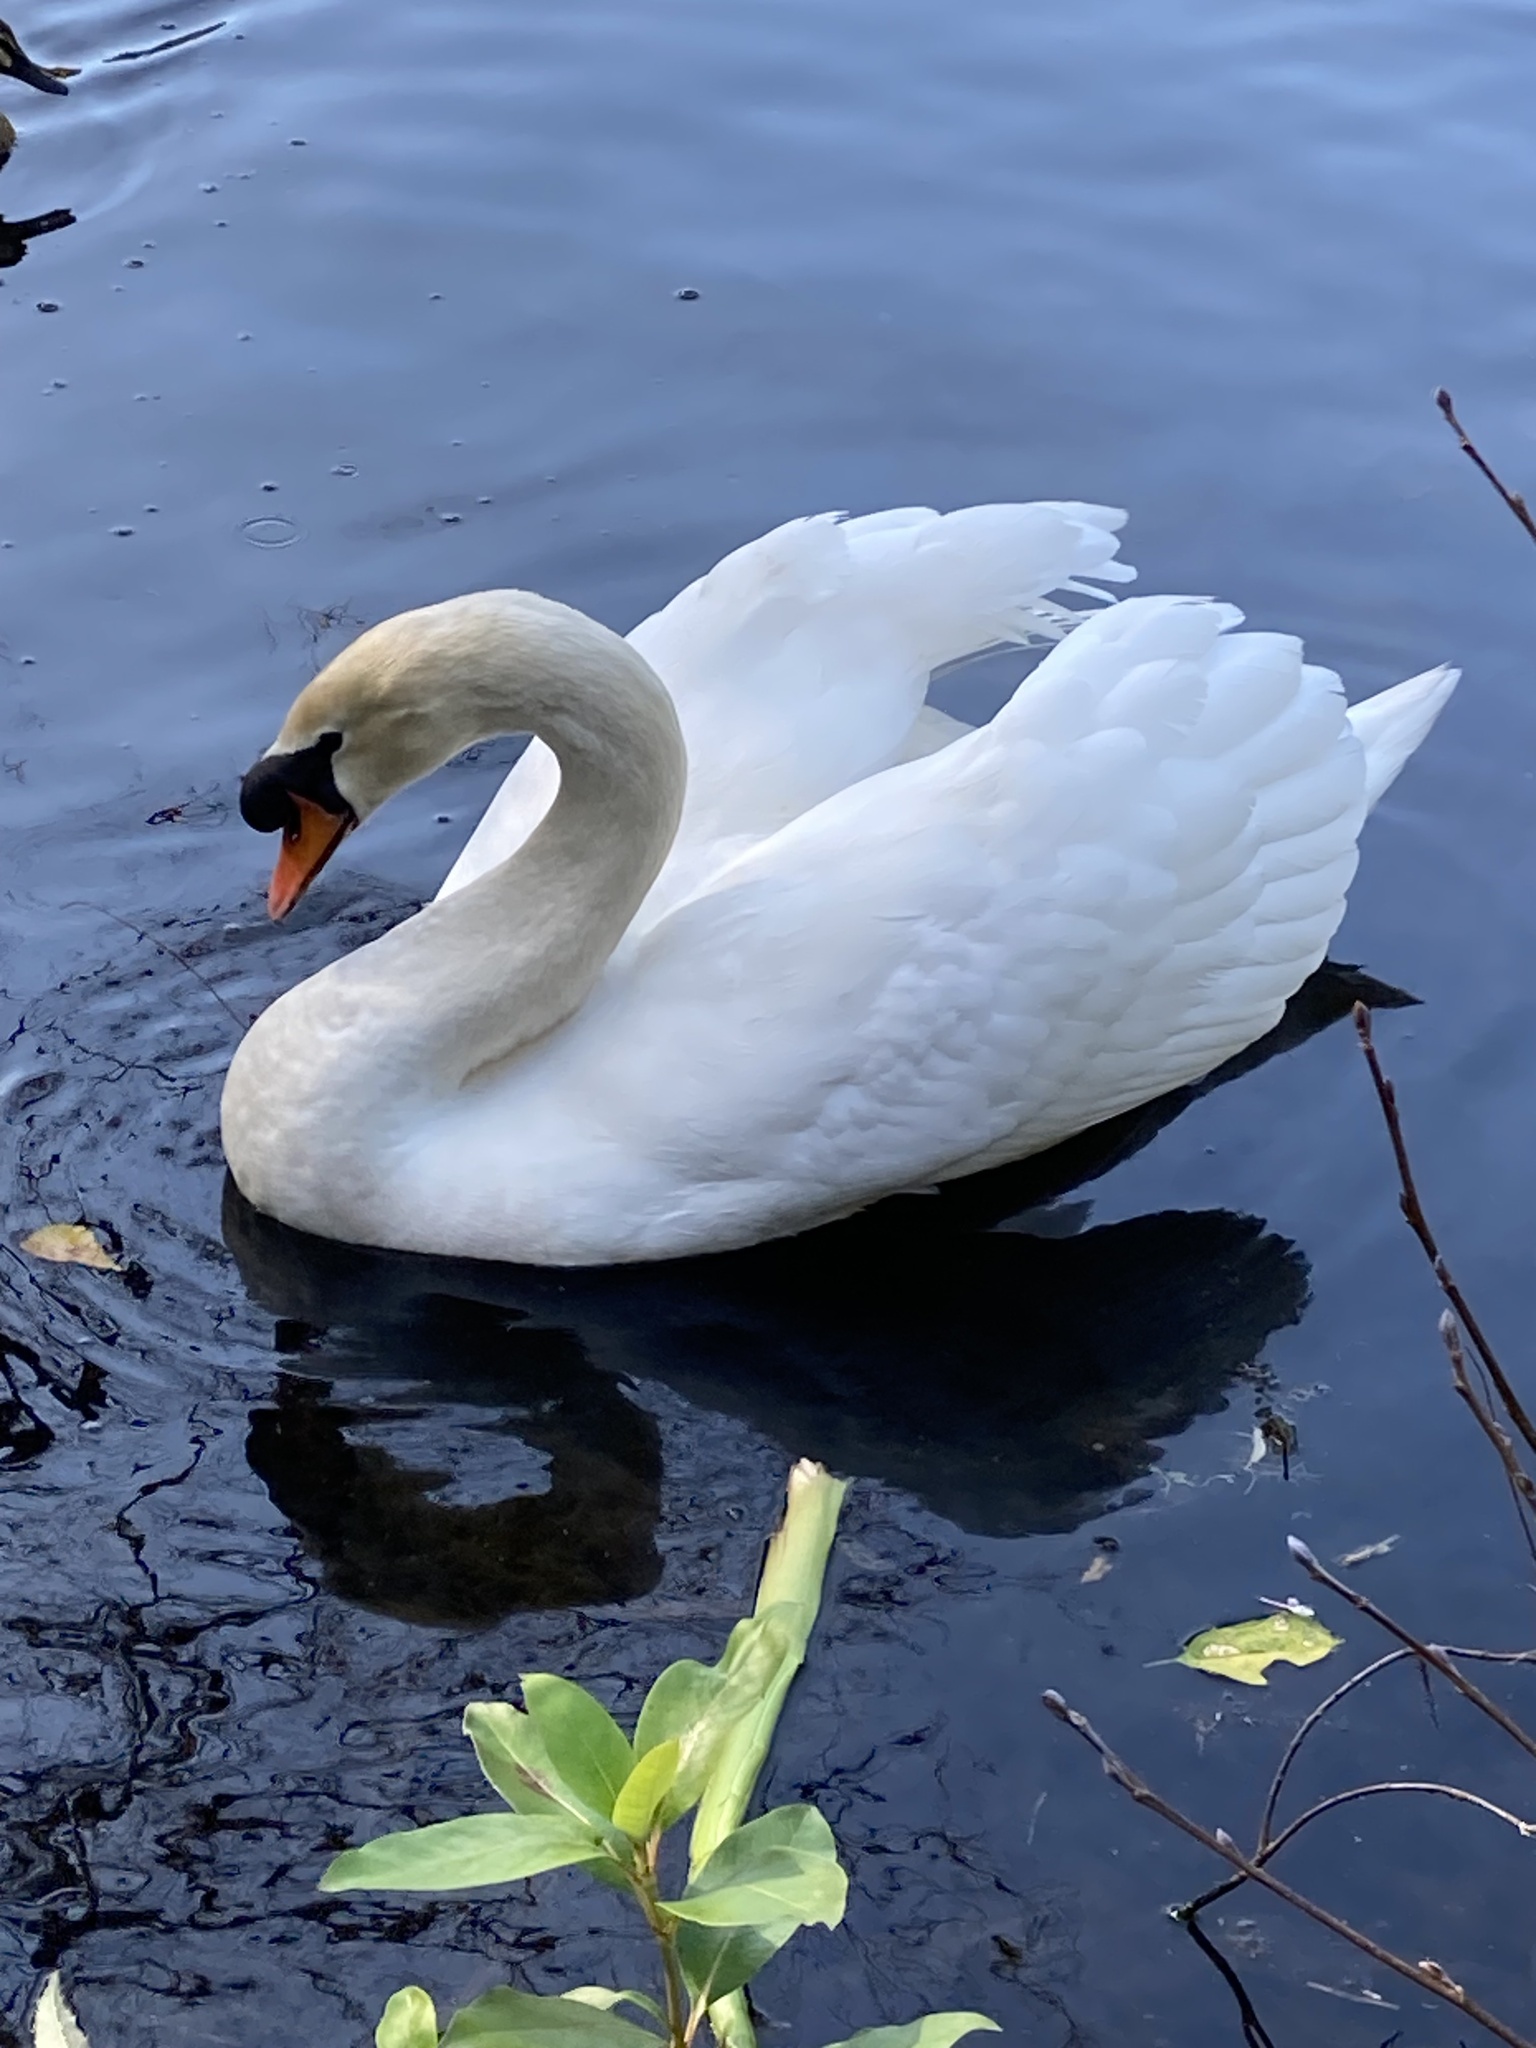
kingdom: Animalia
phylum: Chordata
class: Aves
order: Anseriformes
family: Anatidae
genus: Cygnus
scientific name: Cygnus olor
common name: Mute swan
